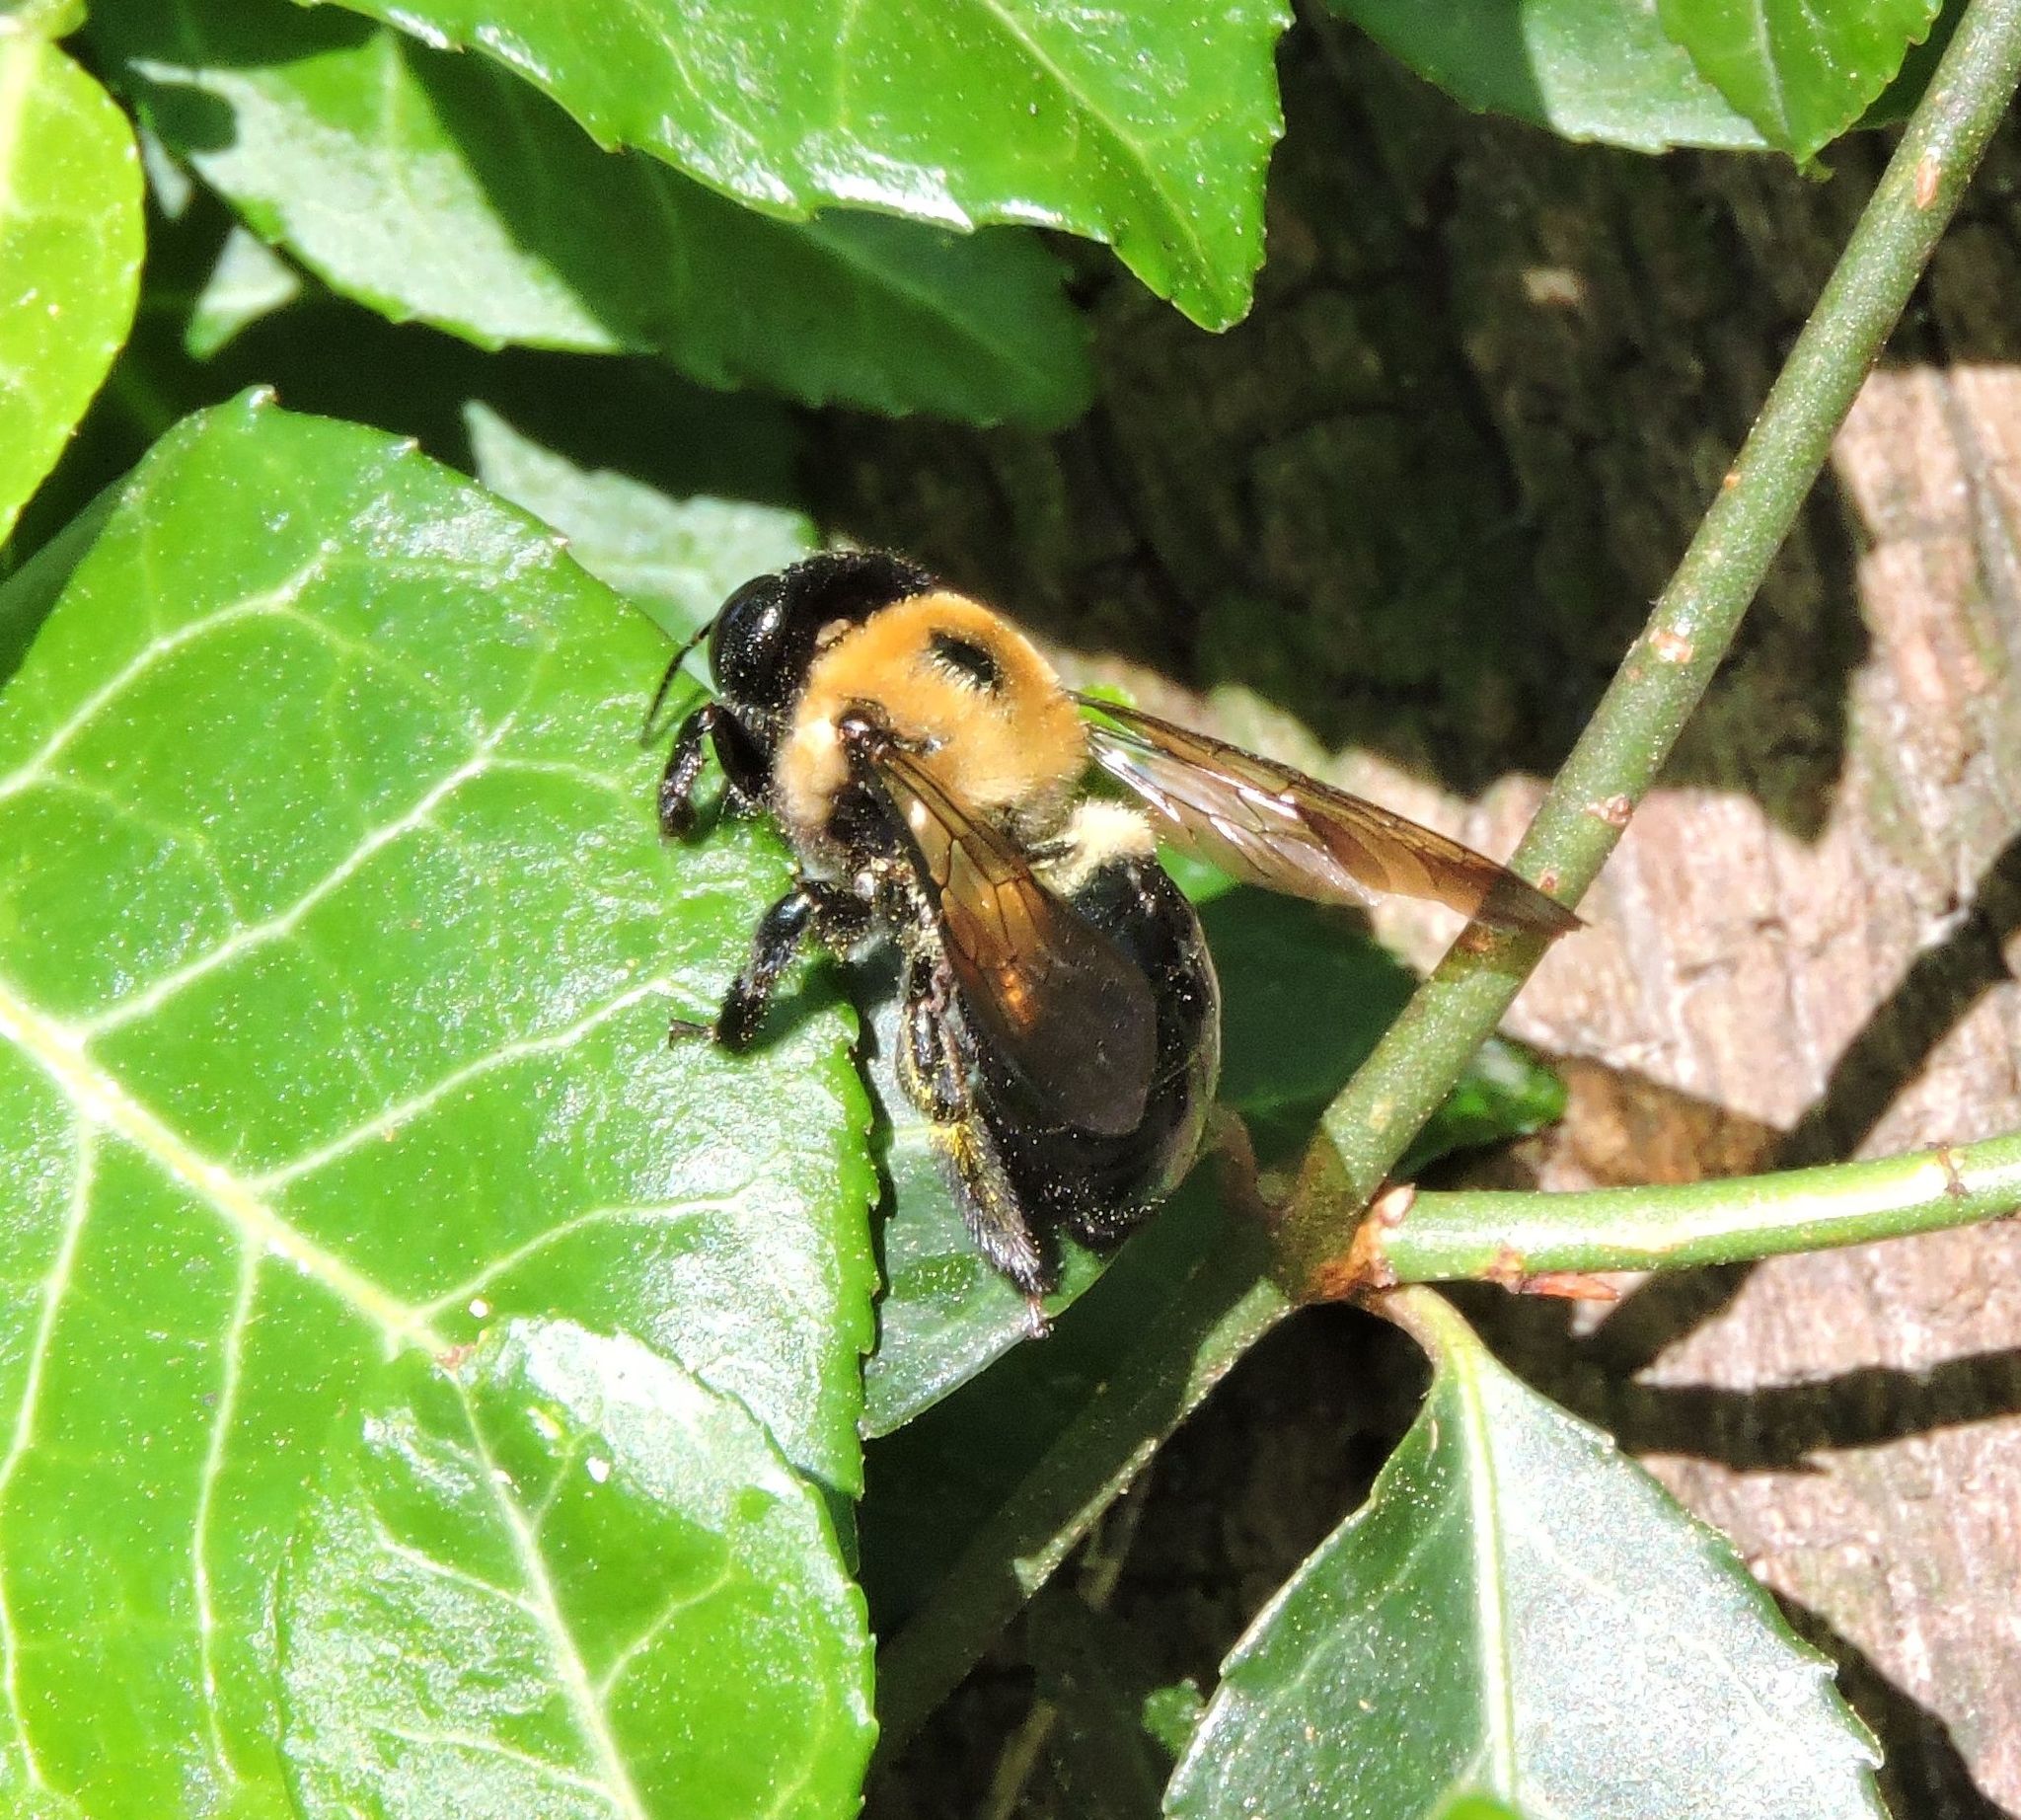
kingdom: Animalia
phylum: Arthropoda
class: Insecta
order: Hymenoptera
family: Apidae
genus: Xylocopa
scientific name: Xylocopa virginica
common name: Carpenter bee
